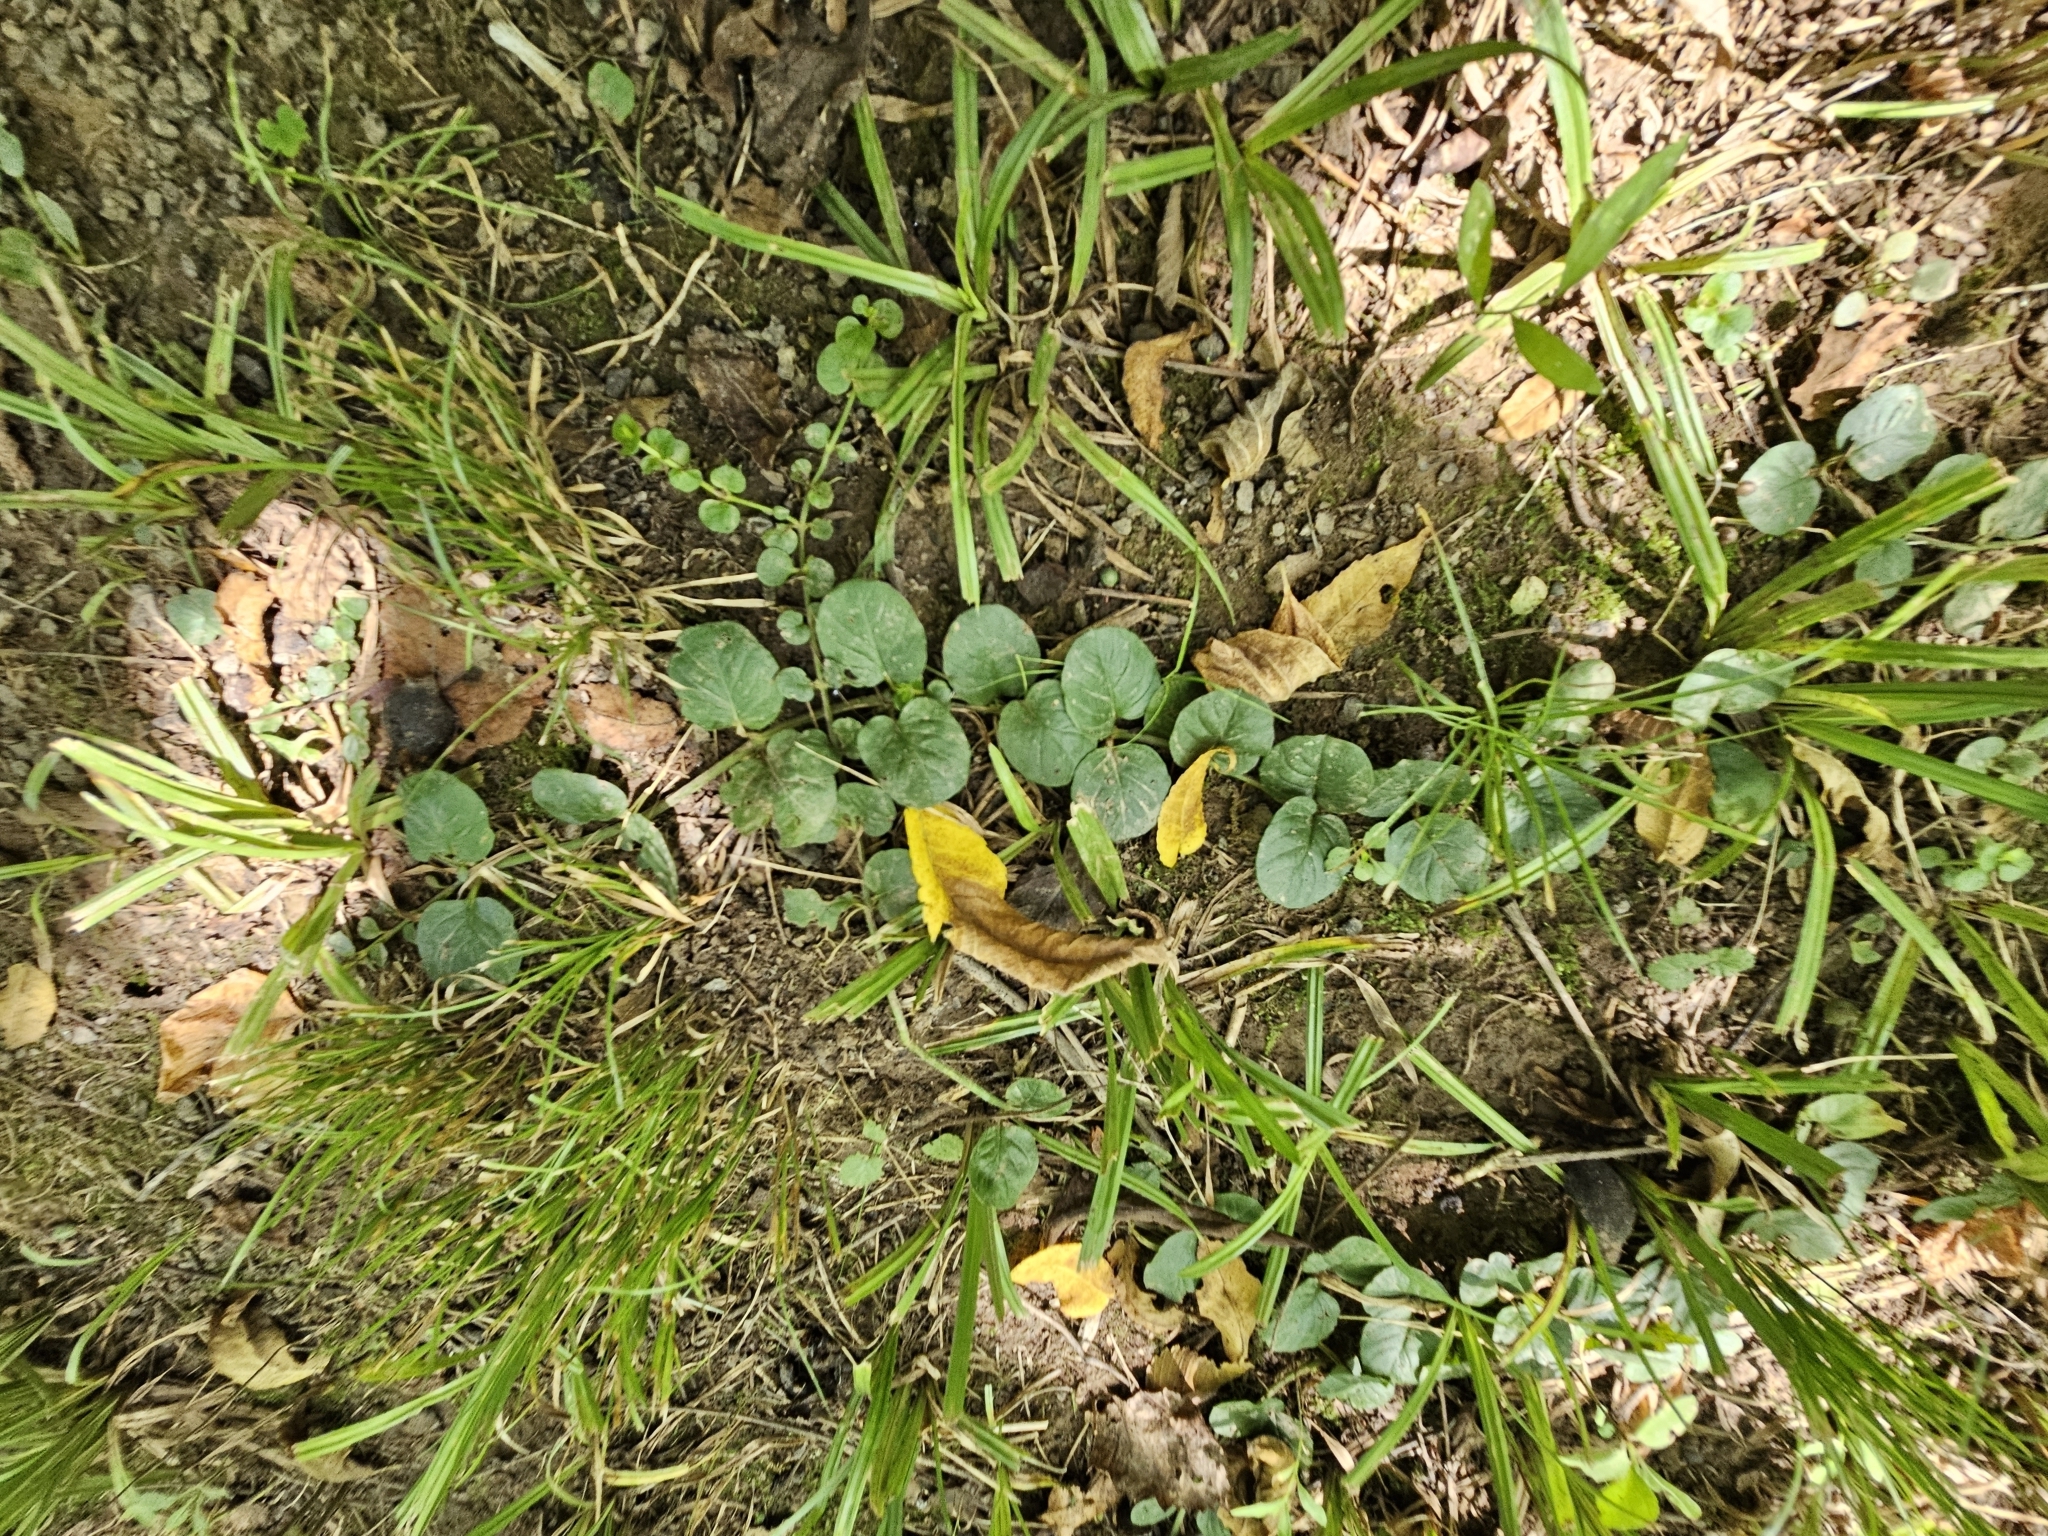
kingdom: Plantae
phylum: Tracheophyta
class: Magnoliopsida
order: Ericales
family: Primulaceae
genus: Lysimachia
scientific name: Lysimachia nummularia
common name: Moneywort
